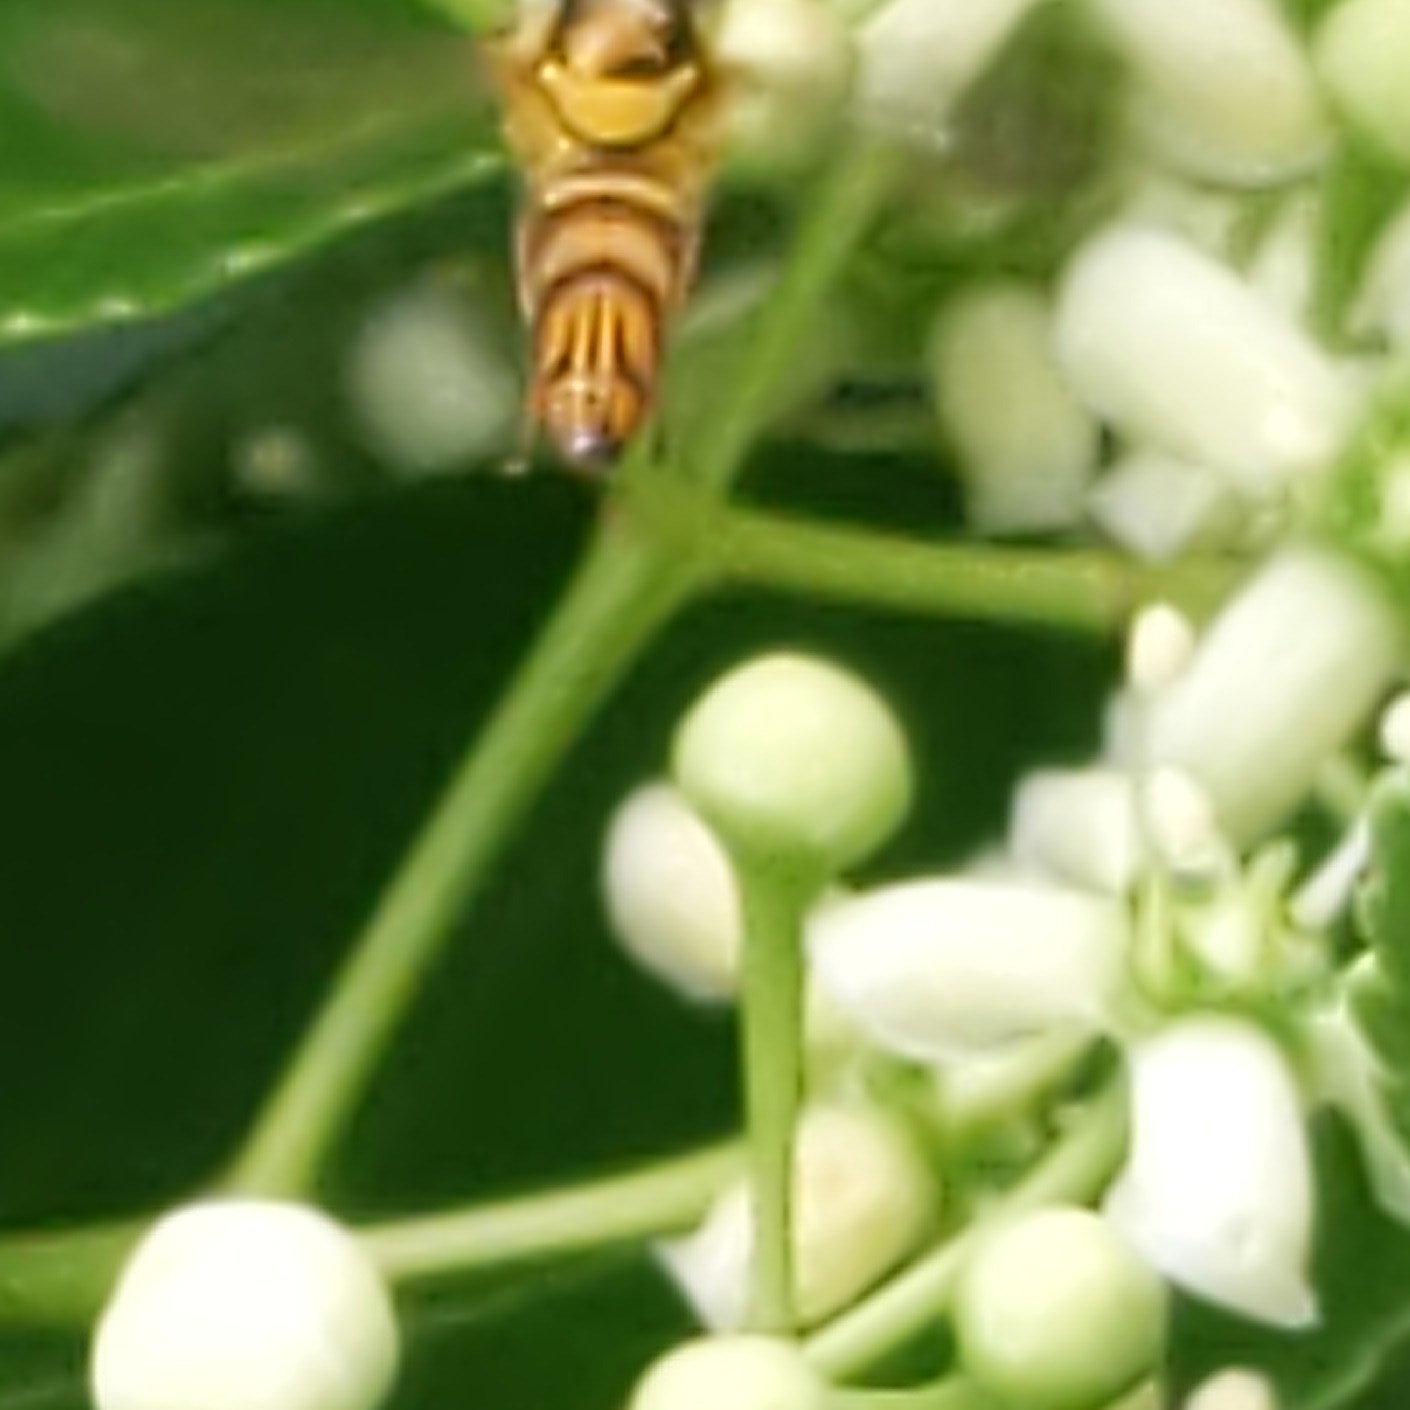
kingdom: Animalia
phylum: Arthropoda
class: Insecta
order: Diptera
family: Syrphidae
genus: Allograpta
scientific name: Allograpta obliqua
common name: Common oblique syrphid
